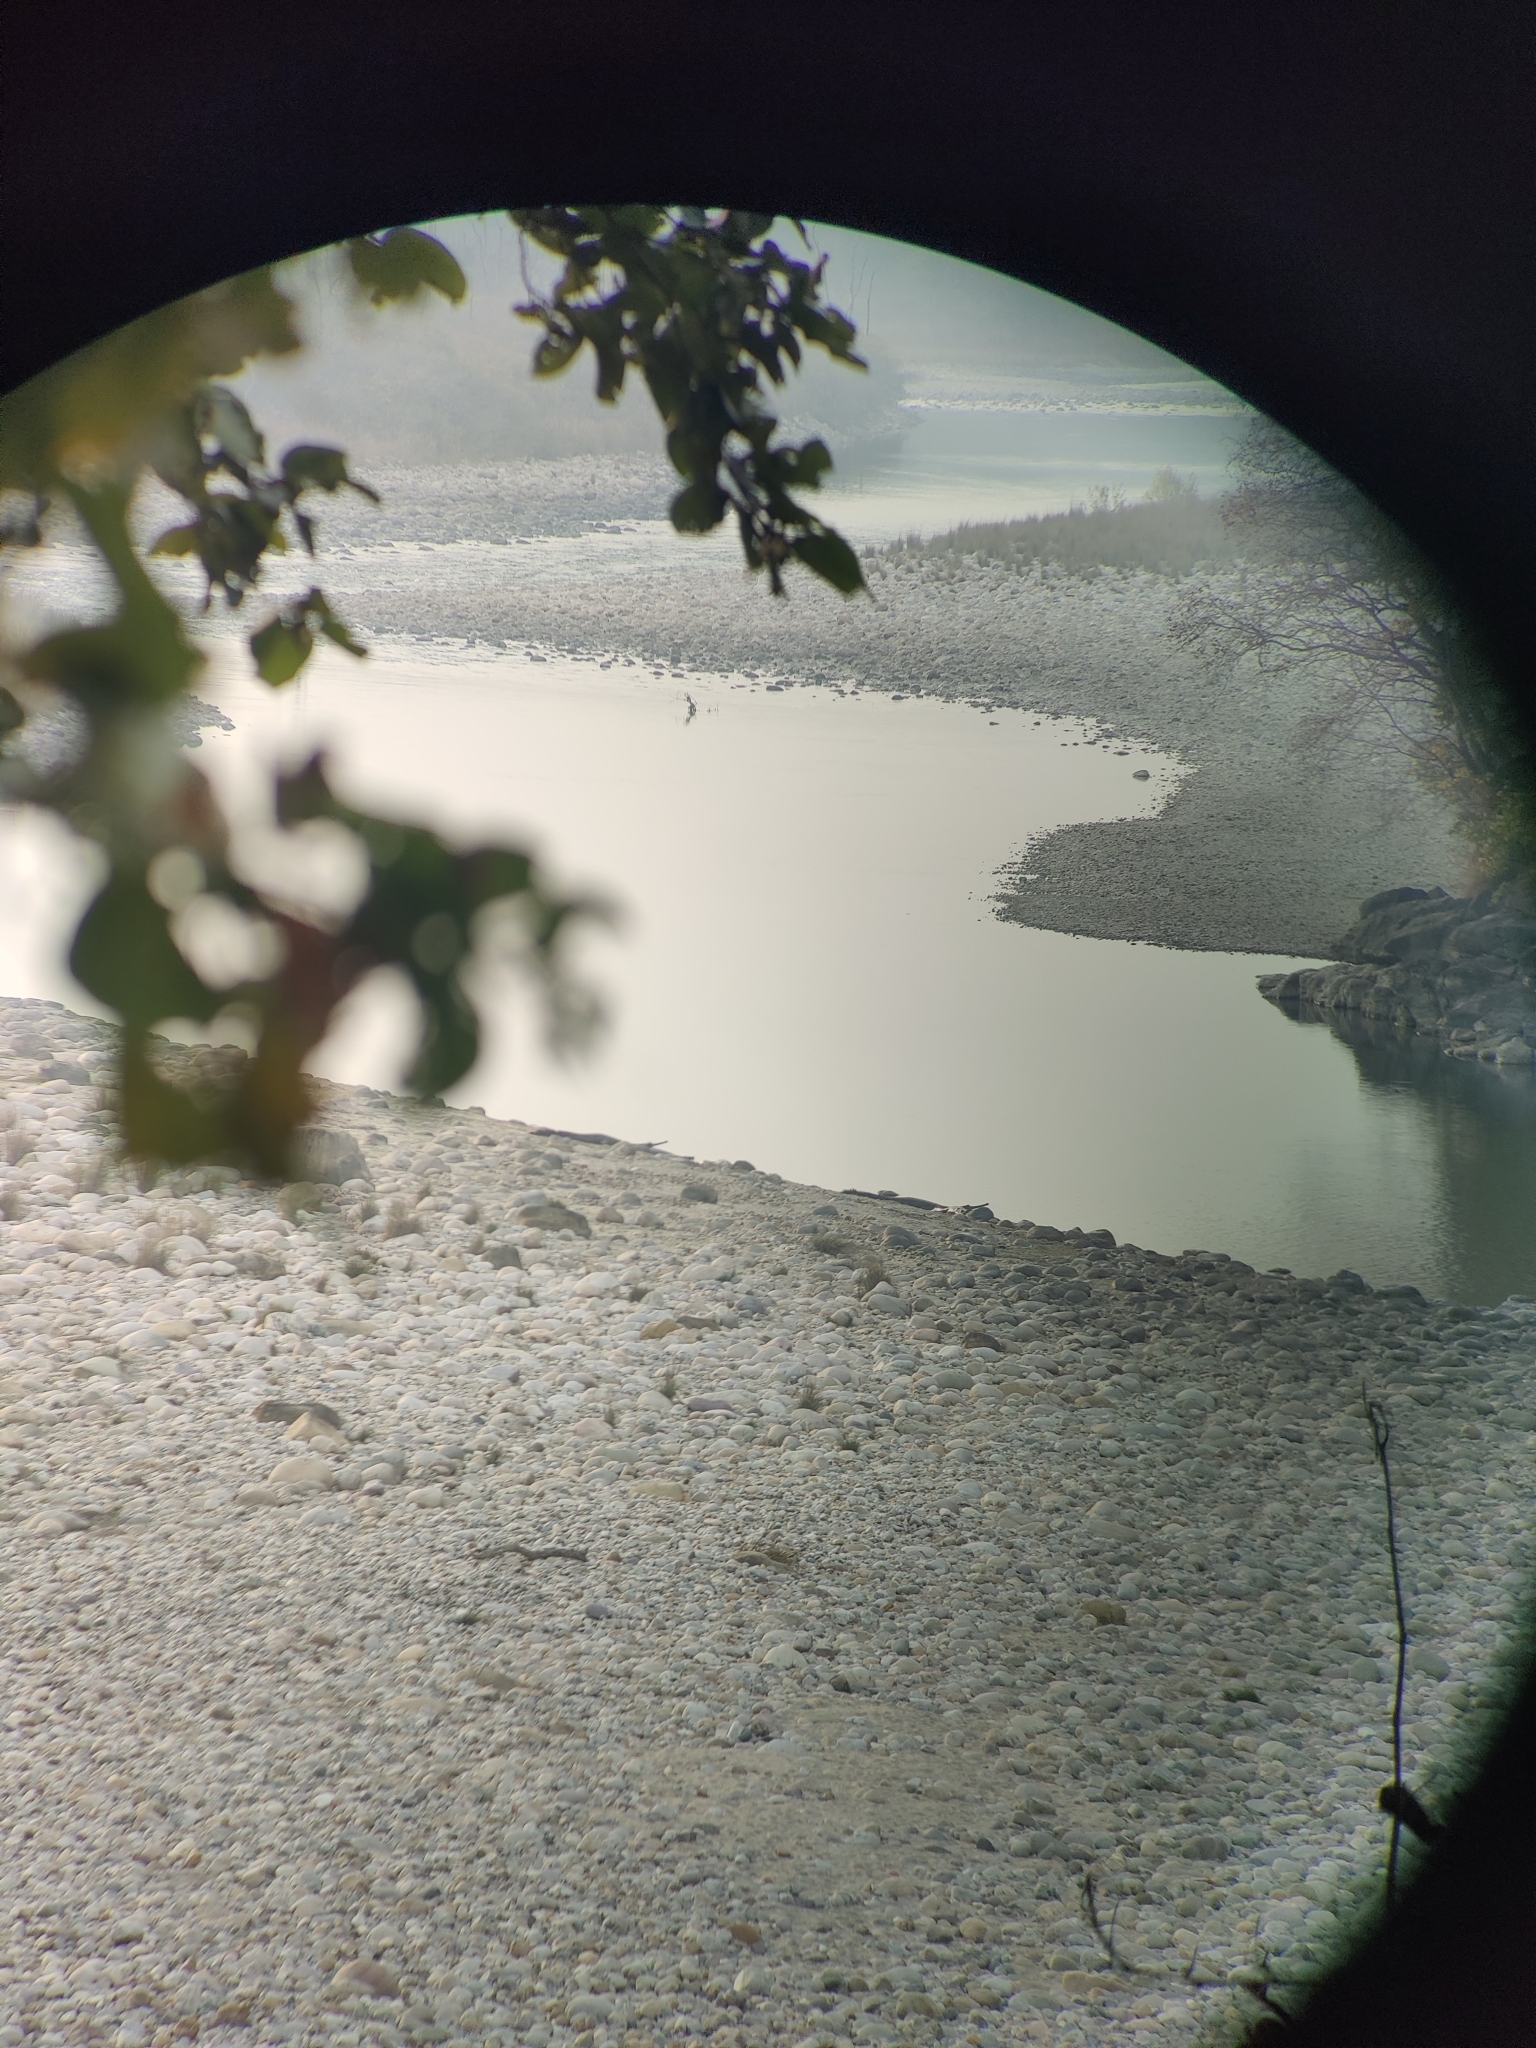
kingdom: Animalia
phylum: Chordata
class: Crocodylia
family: Gavialidae
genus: Gavialis
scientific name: Gavialis gangeticus
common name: Gharial
